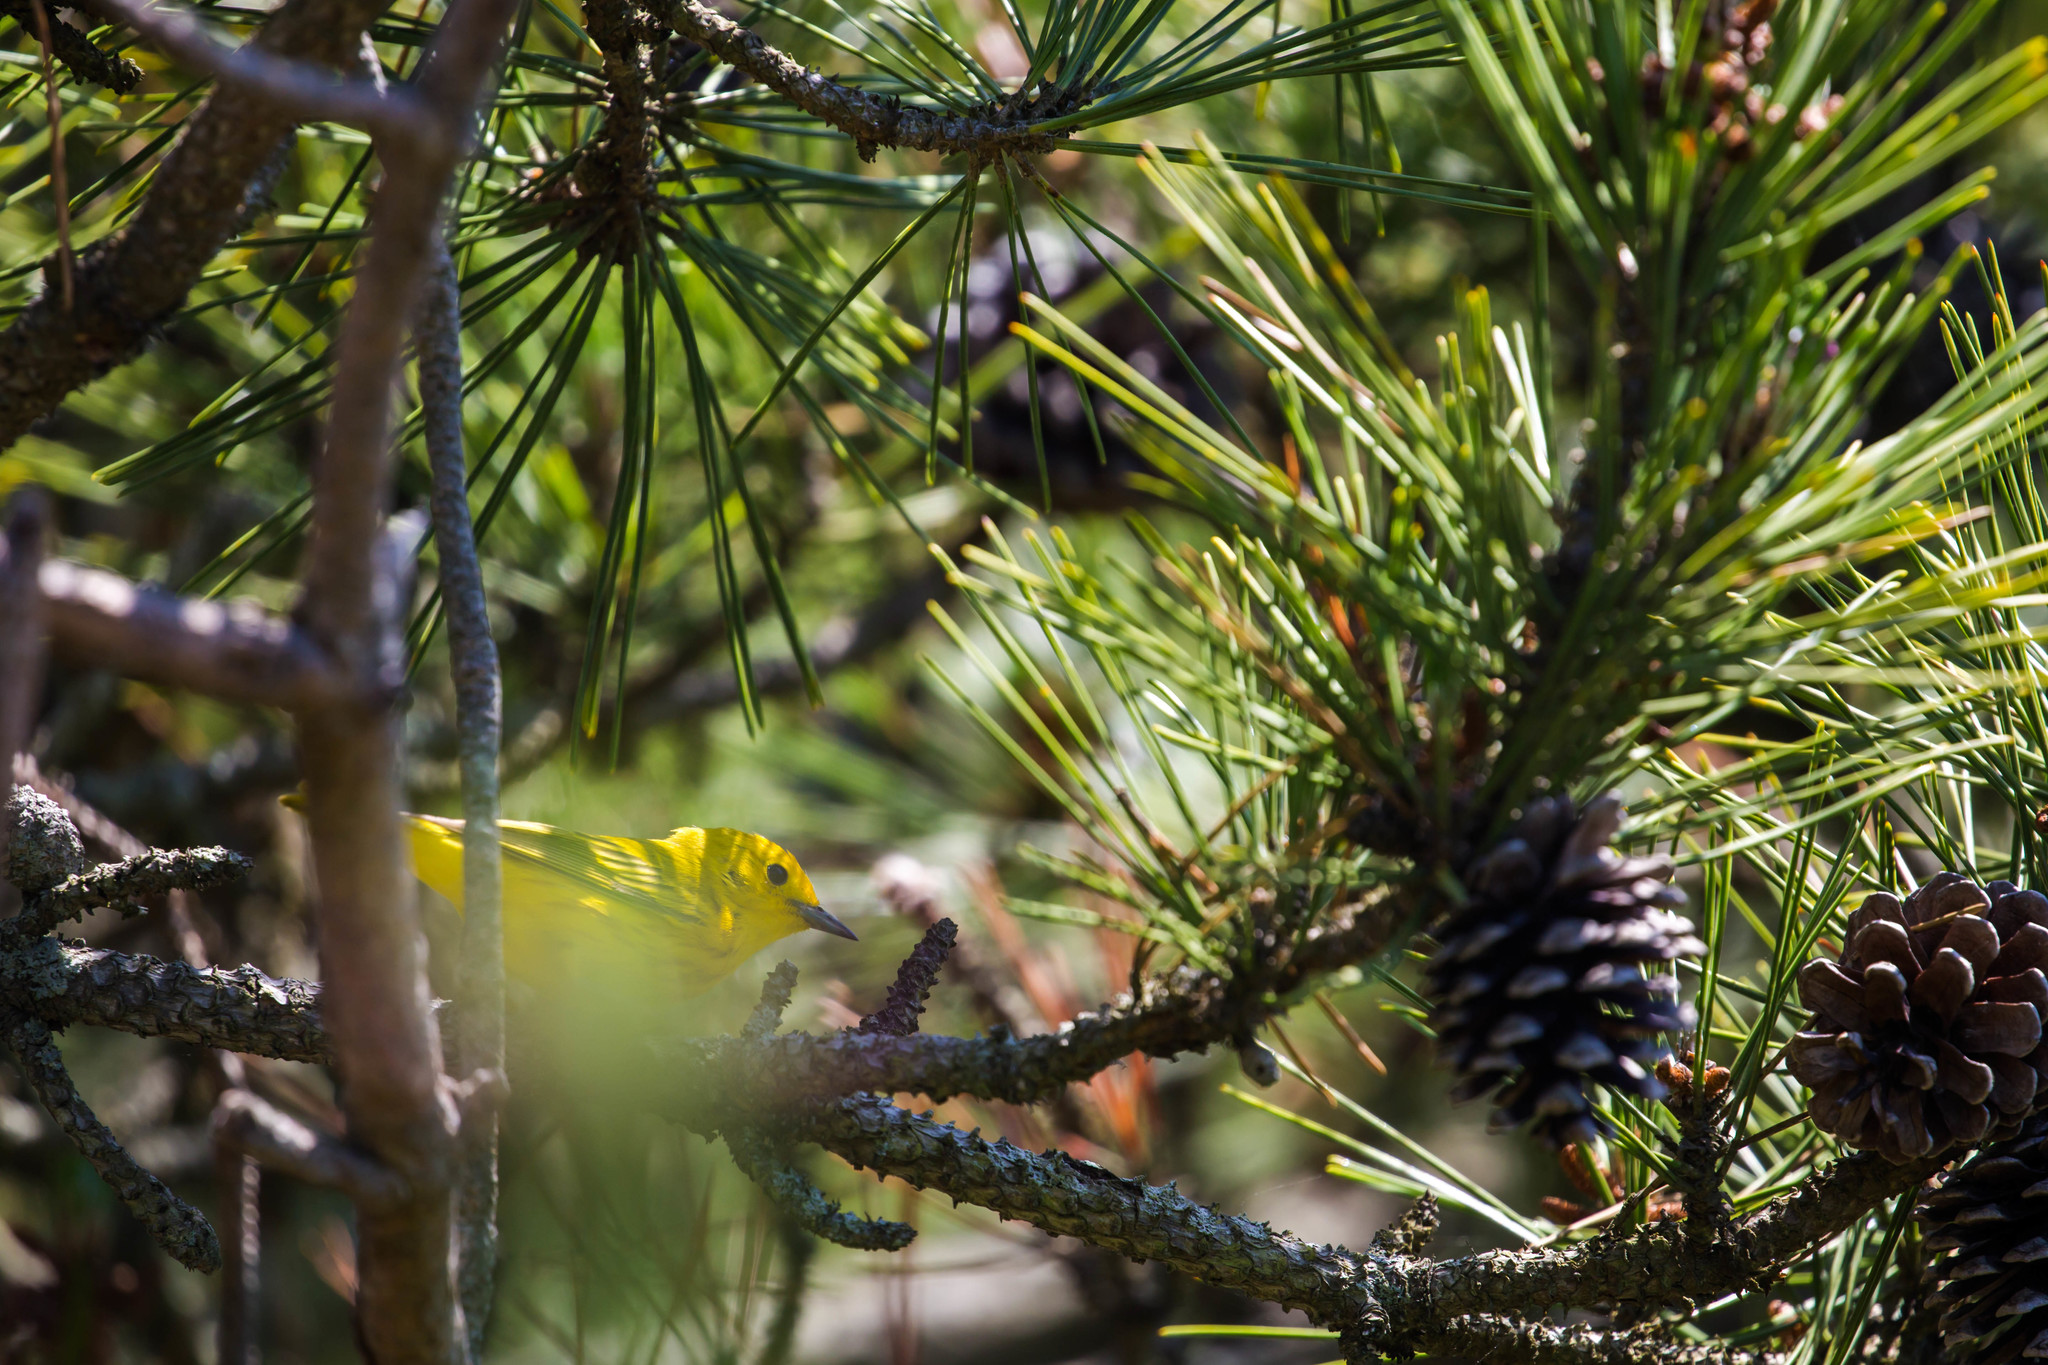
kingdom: Animalia
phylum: Chordata
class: Aves
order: Passeriformes
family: Parulidae
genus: Setophaga
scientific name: Setophaga petechia
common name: Yellow warbler
